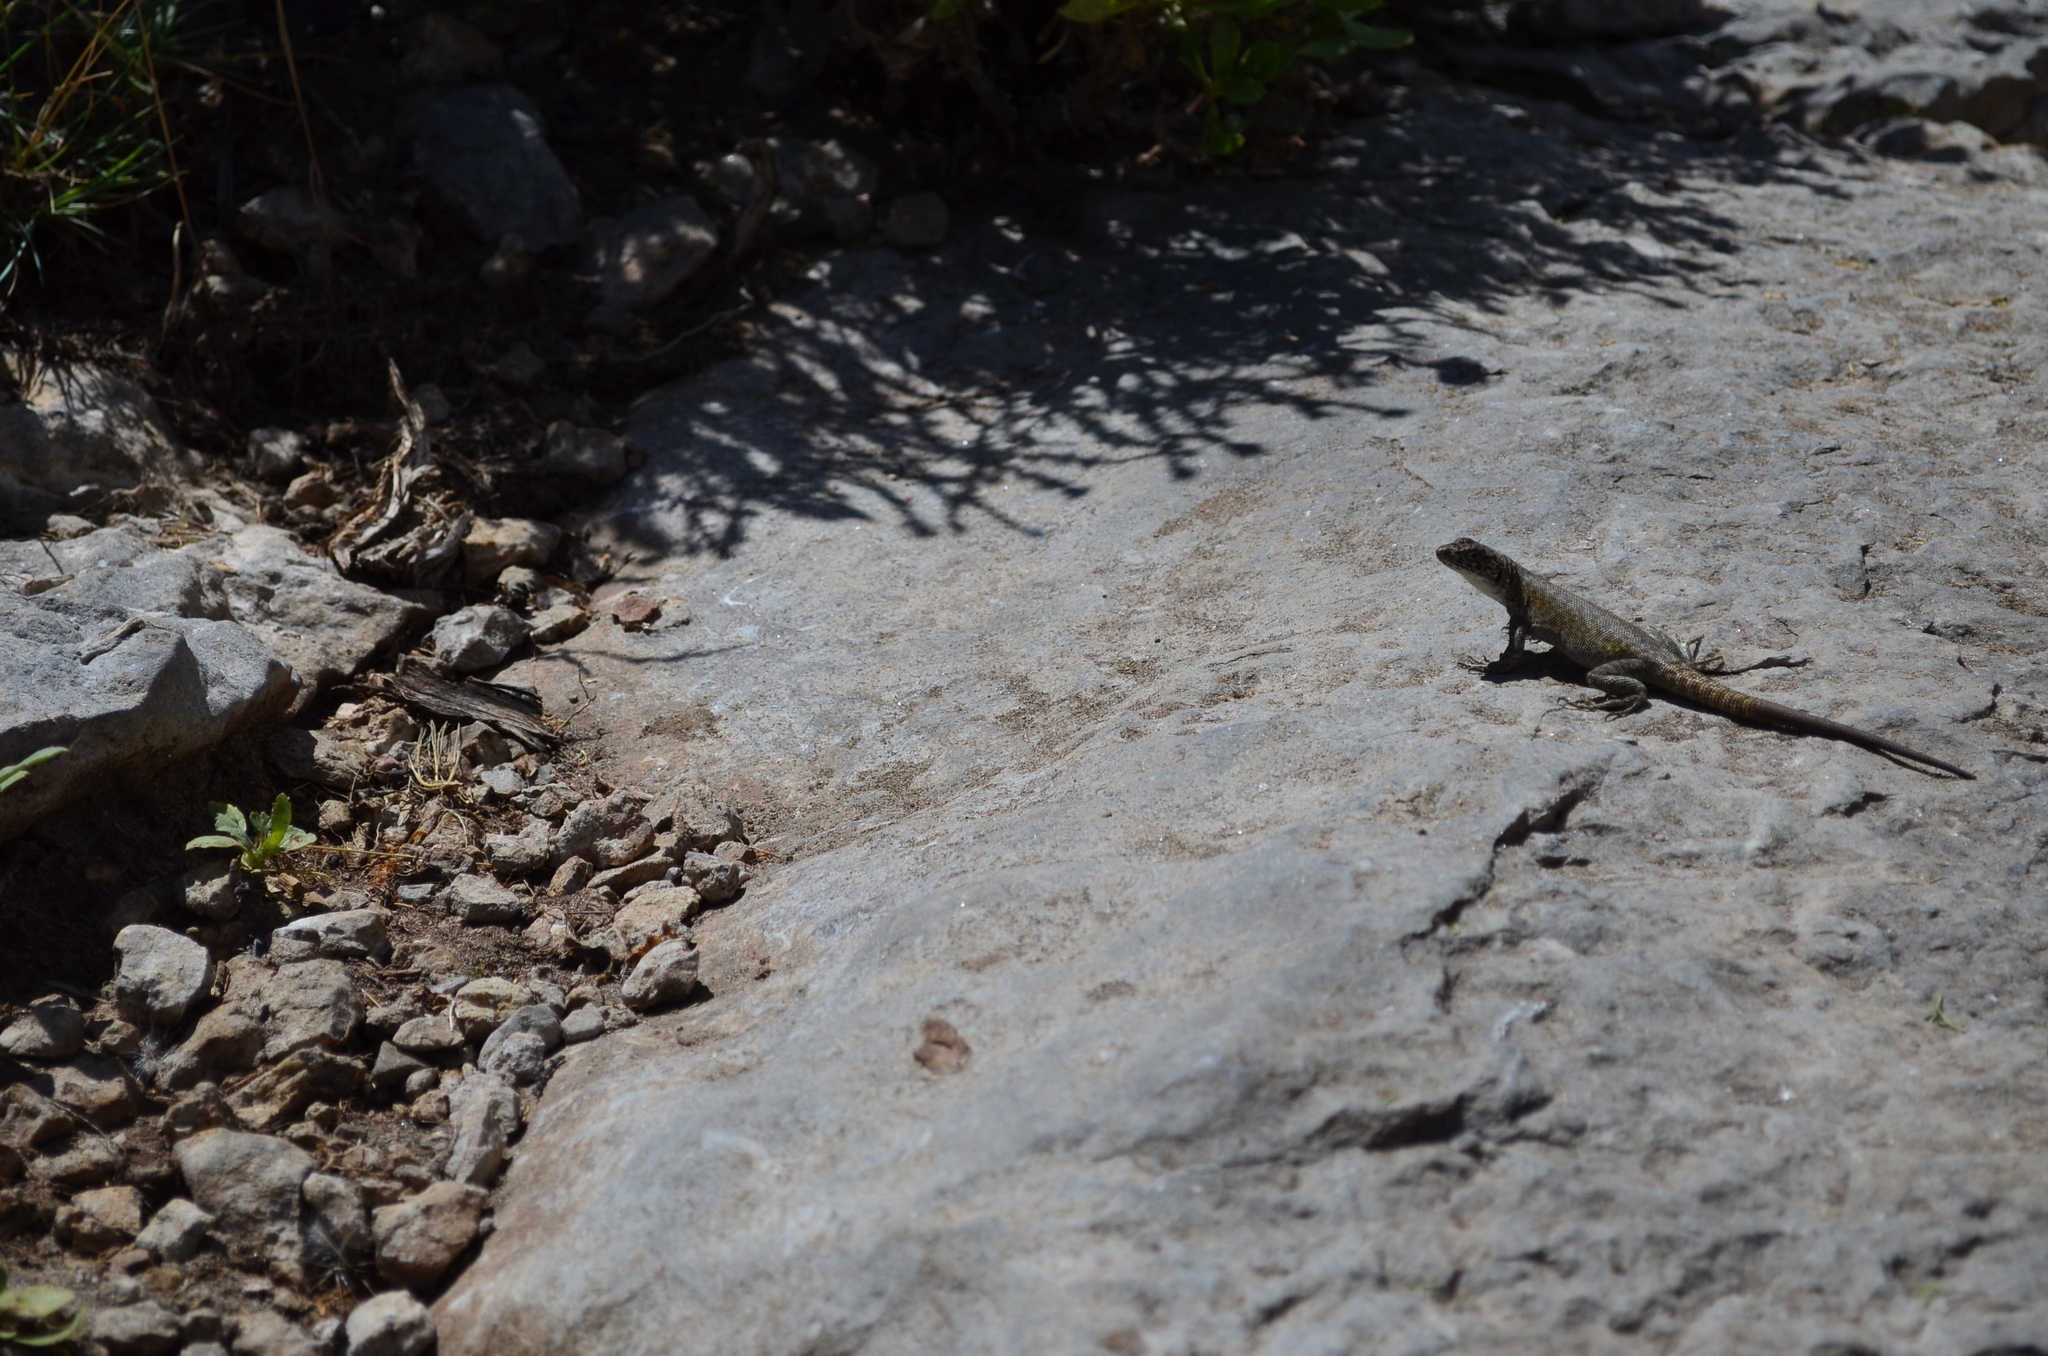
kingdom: Animalia
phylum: Chordata
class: Squamata
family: Liolaemidae
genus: Liolaemus
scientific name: Liolaemus austromendocinus
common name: Austromendocino tree iguana
